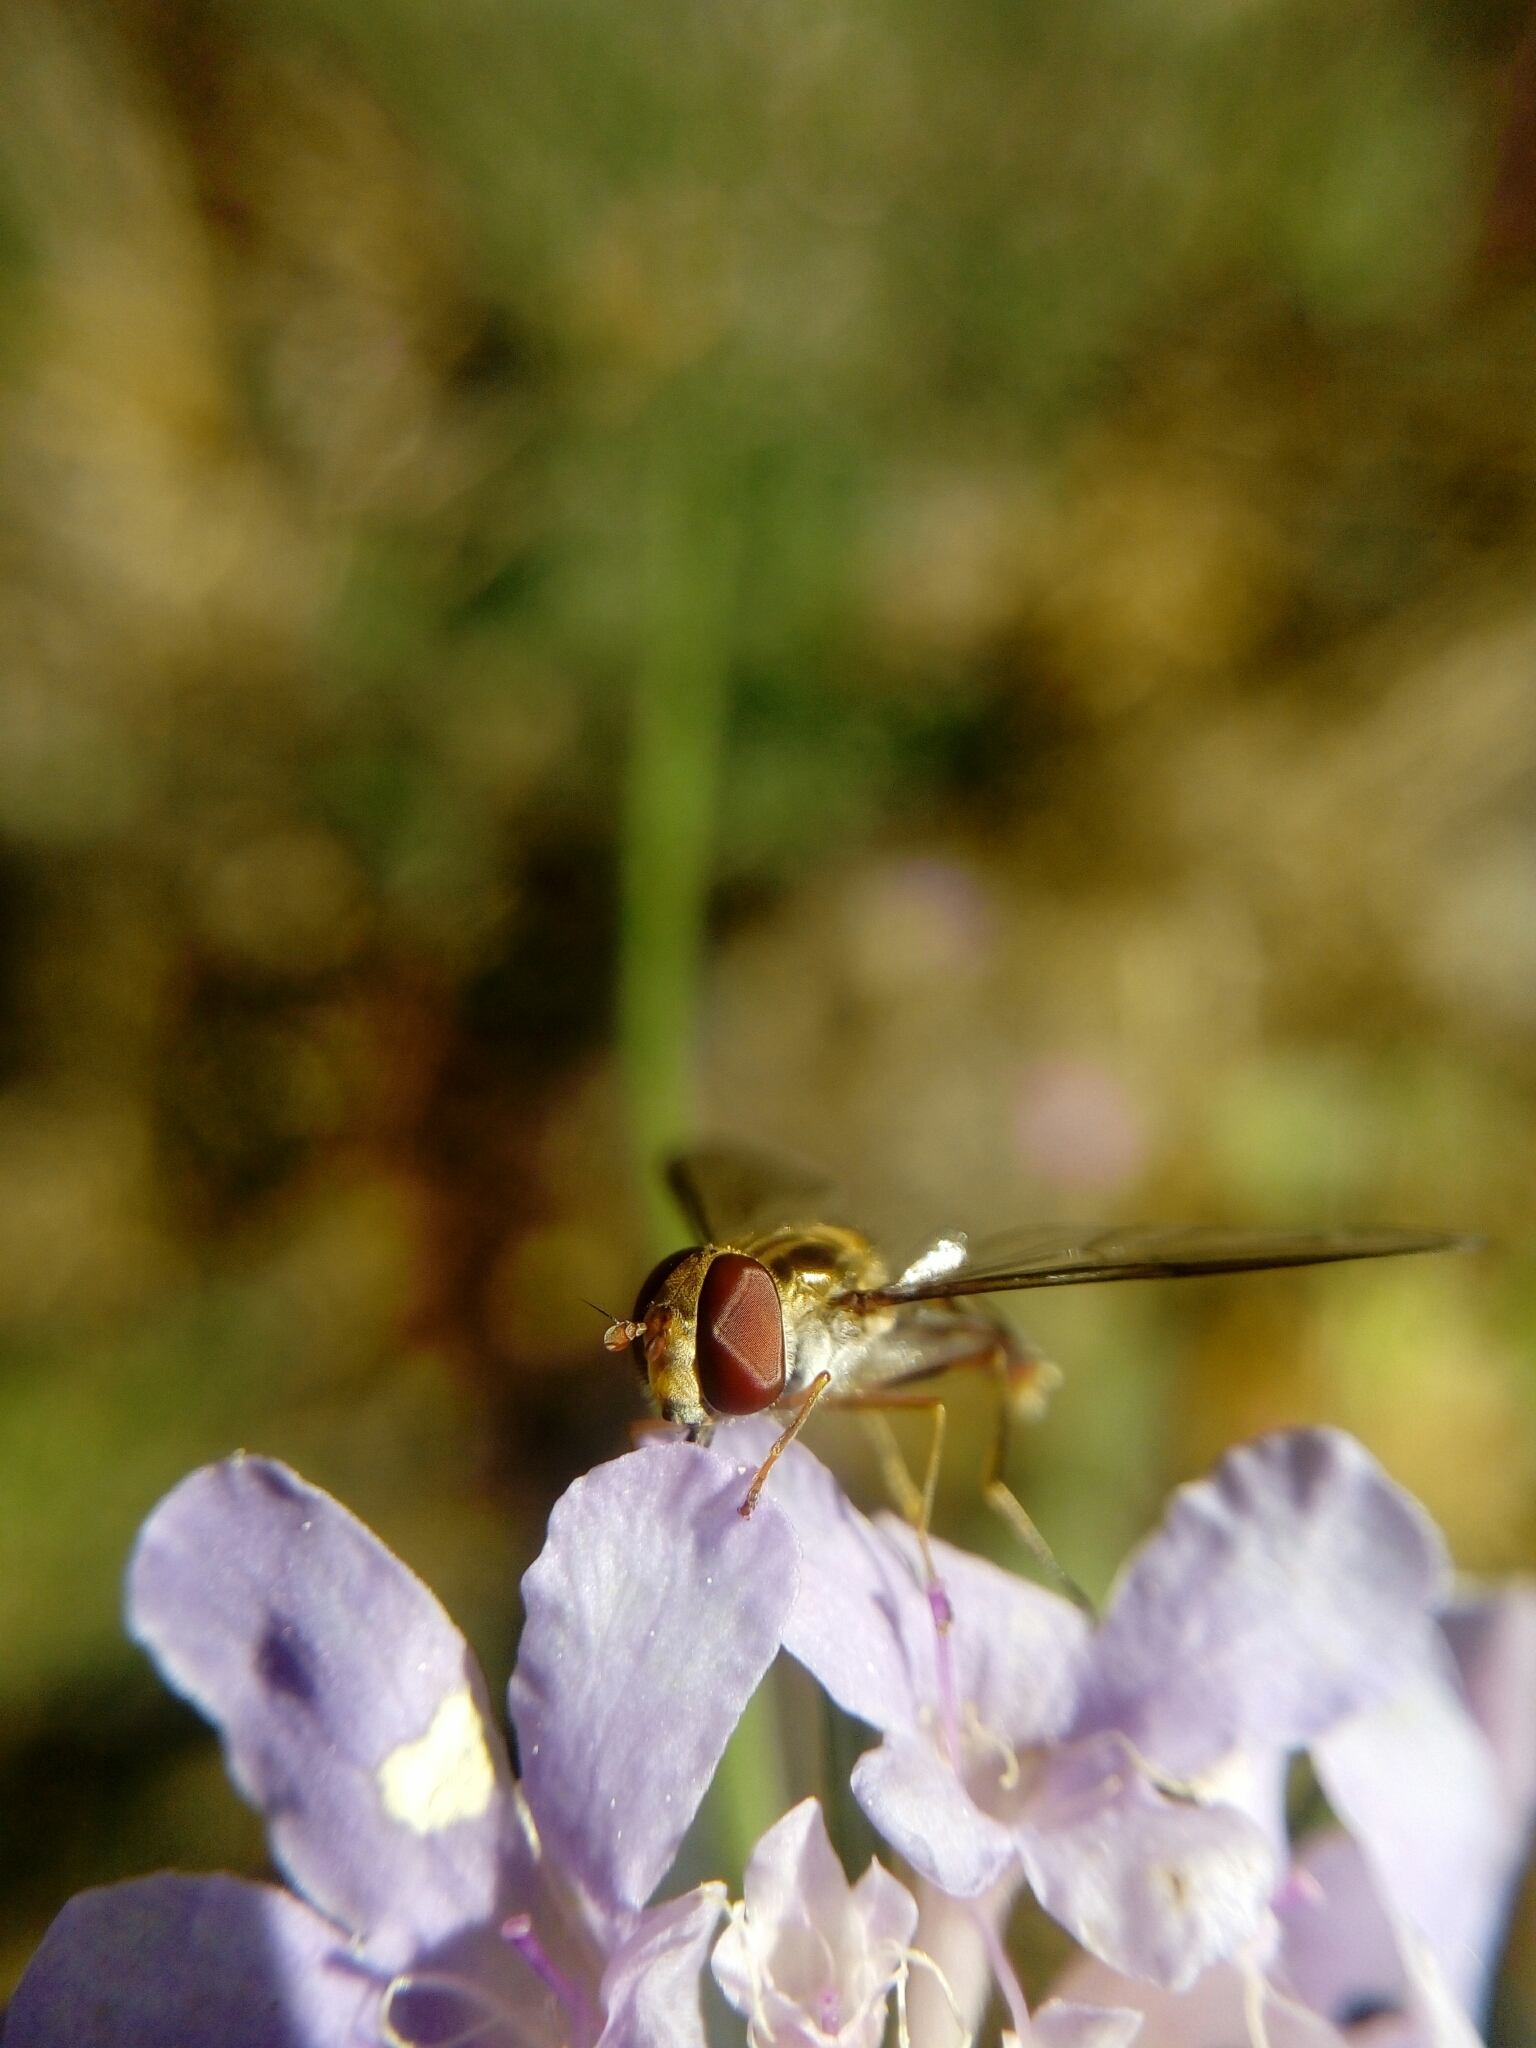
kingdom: Animalia
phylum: Arthropoda
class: Insecta
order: Diptera
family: Syrphidae
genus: Episyrphus
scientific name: Episyrphus balteatus
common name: Marmalade hoverfly
